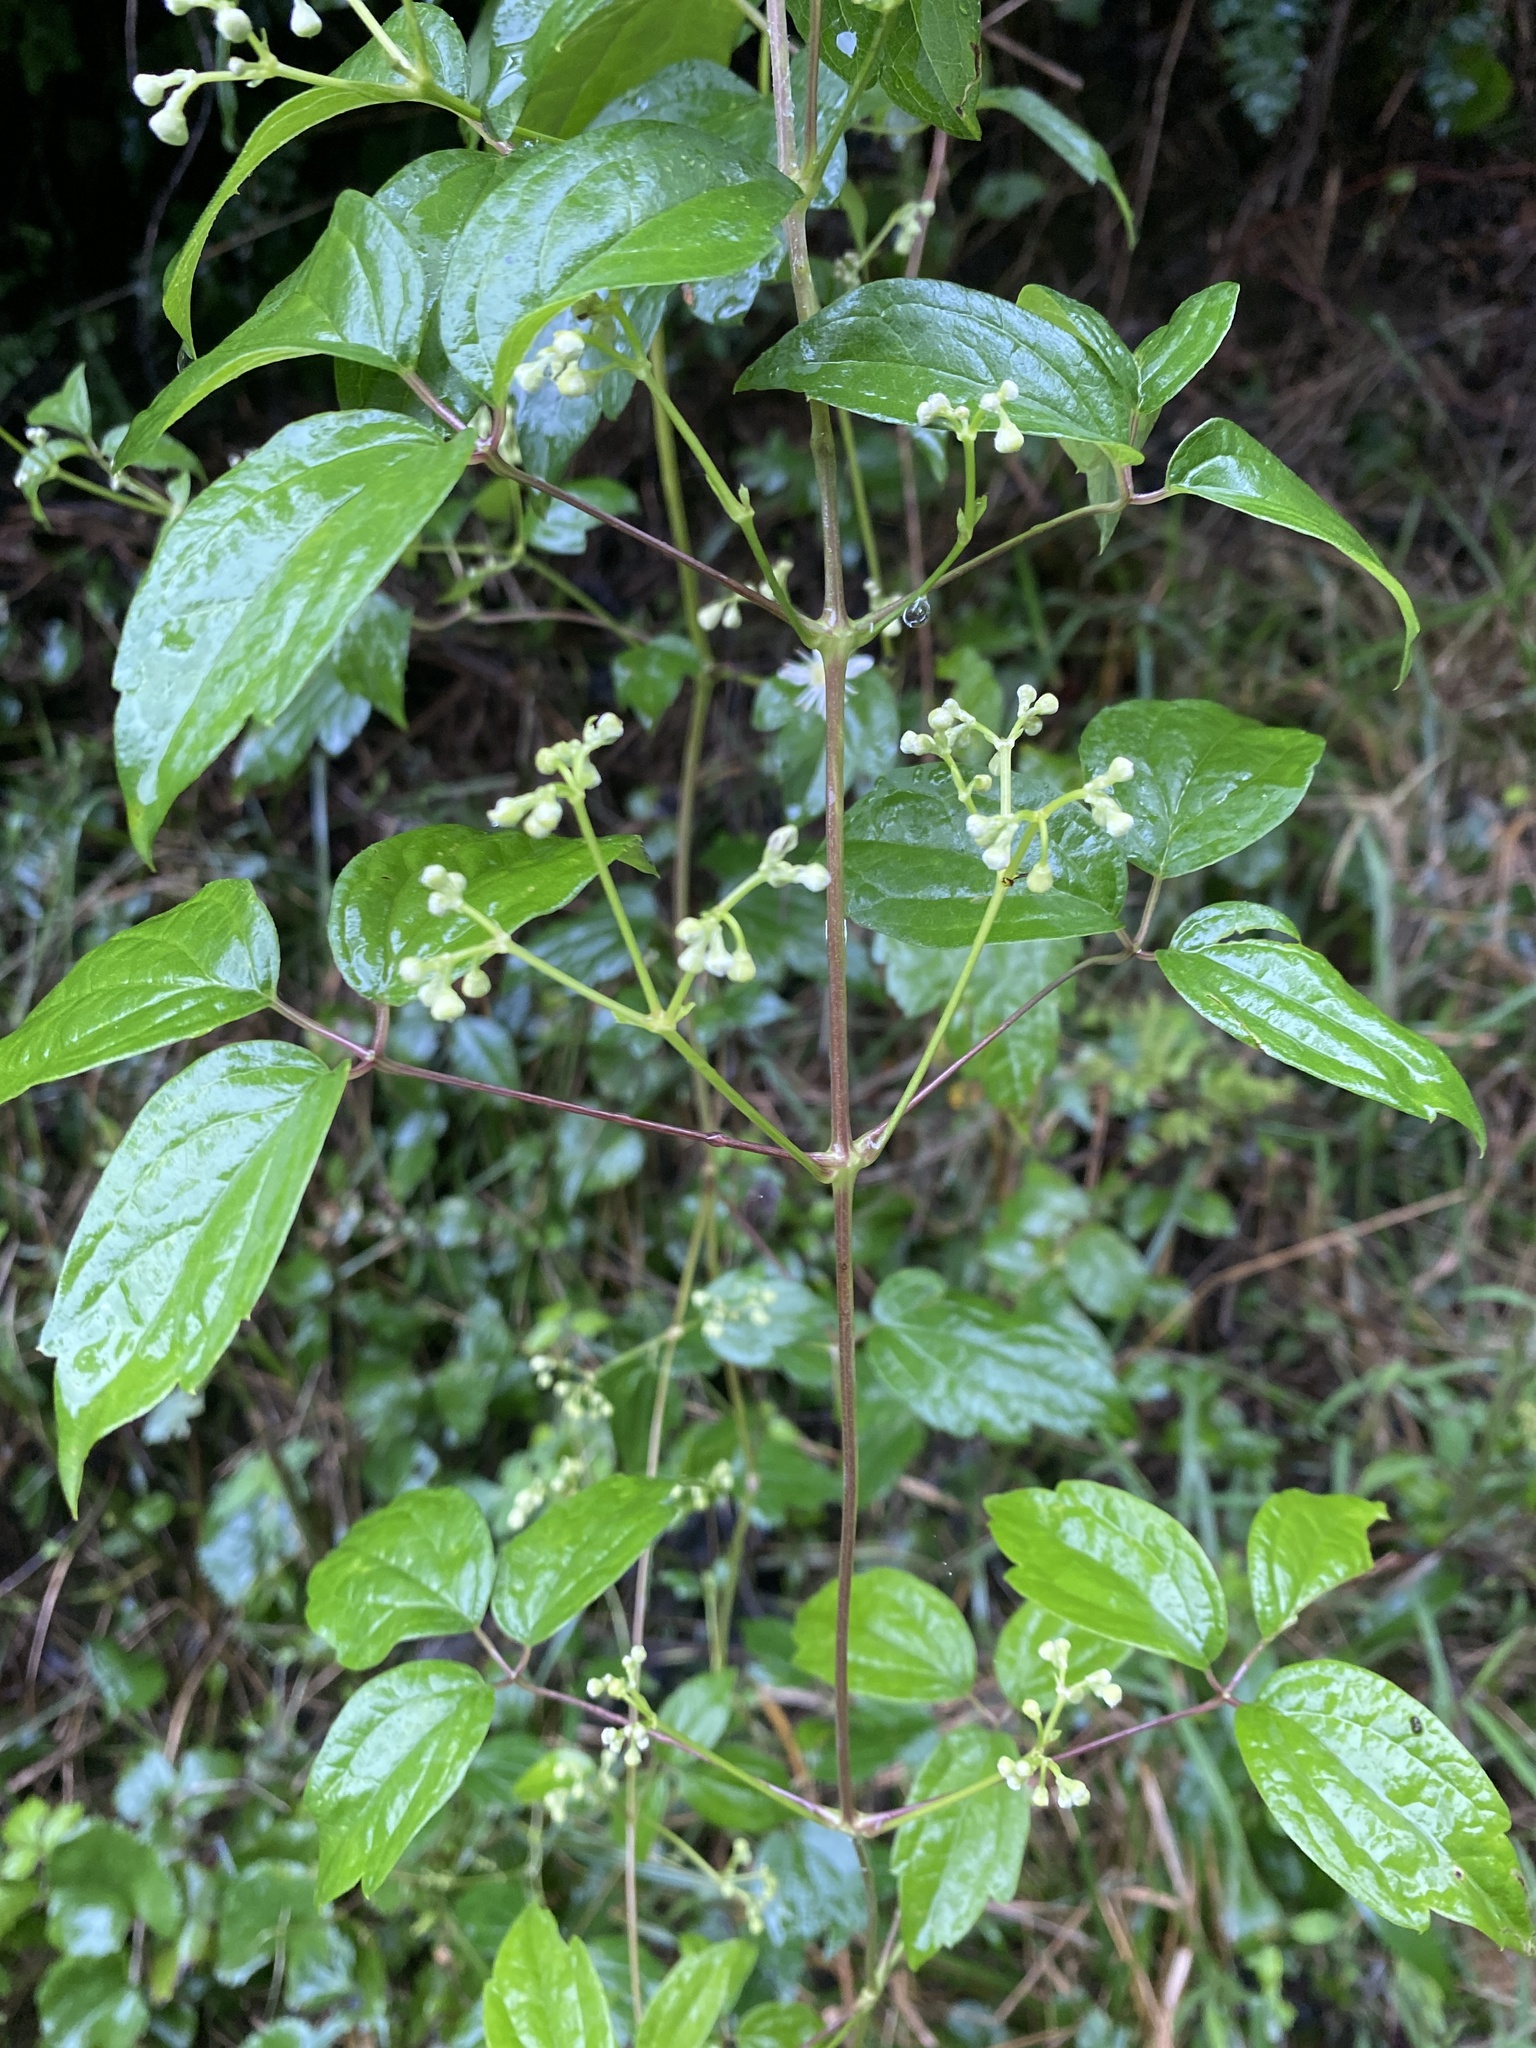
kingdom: Plantae
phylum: Tracheophyta
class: Magnoliopsida
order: Ranunculales
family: Ranunculaceae
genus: Clematis
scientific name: Clematis virginiana
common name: Virgin's-bower
